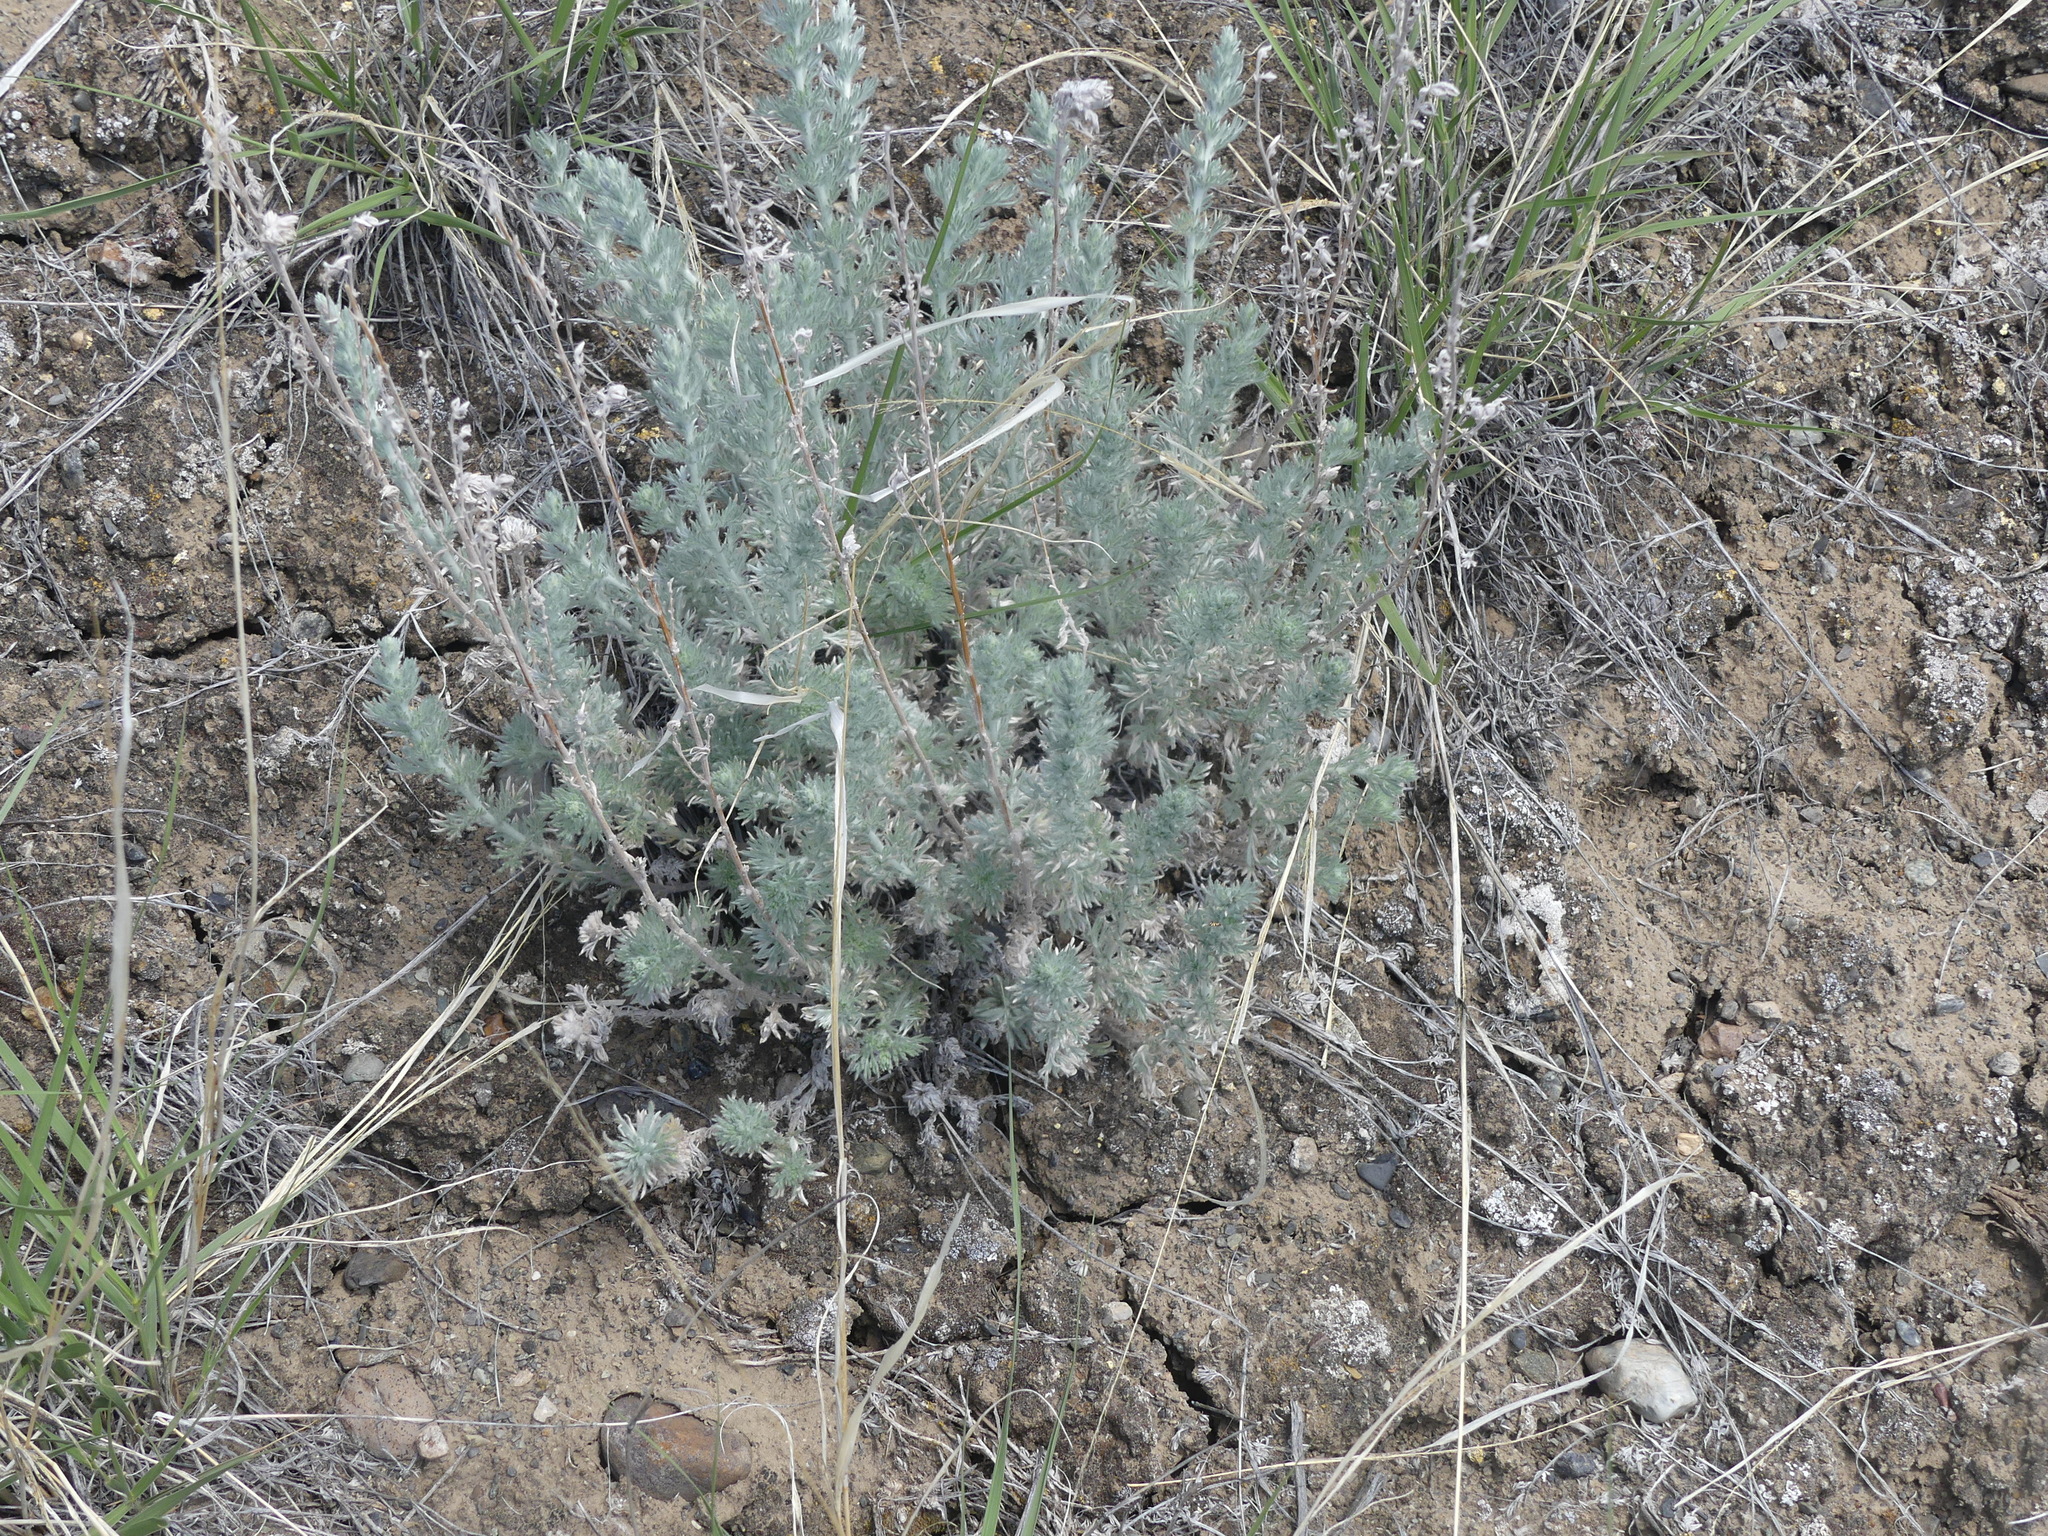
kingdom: Plantae
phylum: Tracheophyta
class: Magnoliopsida
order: Asterales
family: Asteraceae
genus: Artemisia
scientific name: Artemisia frigida
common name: Prairie sagewort
